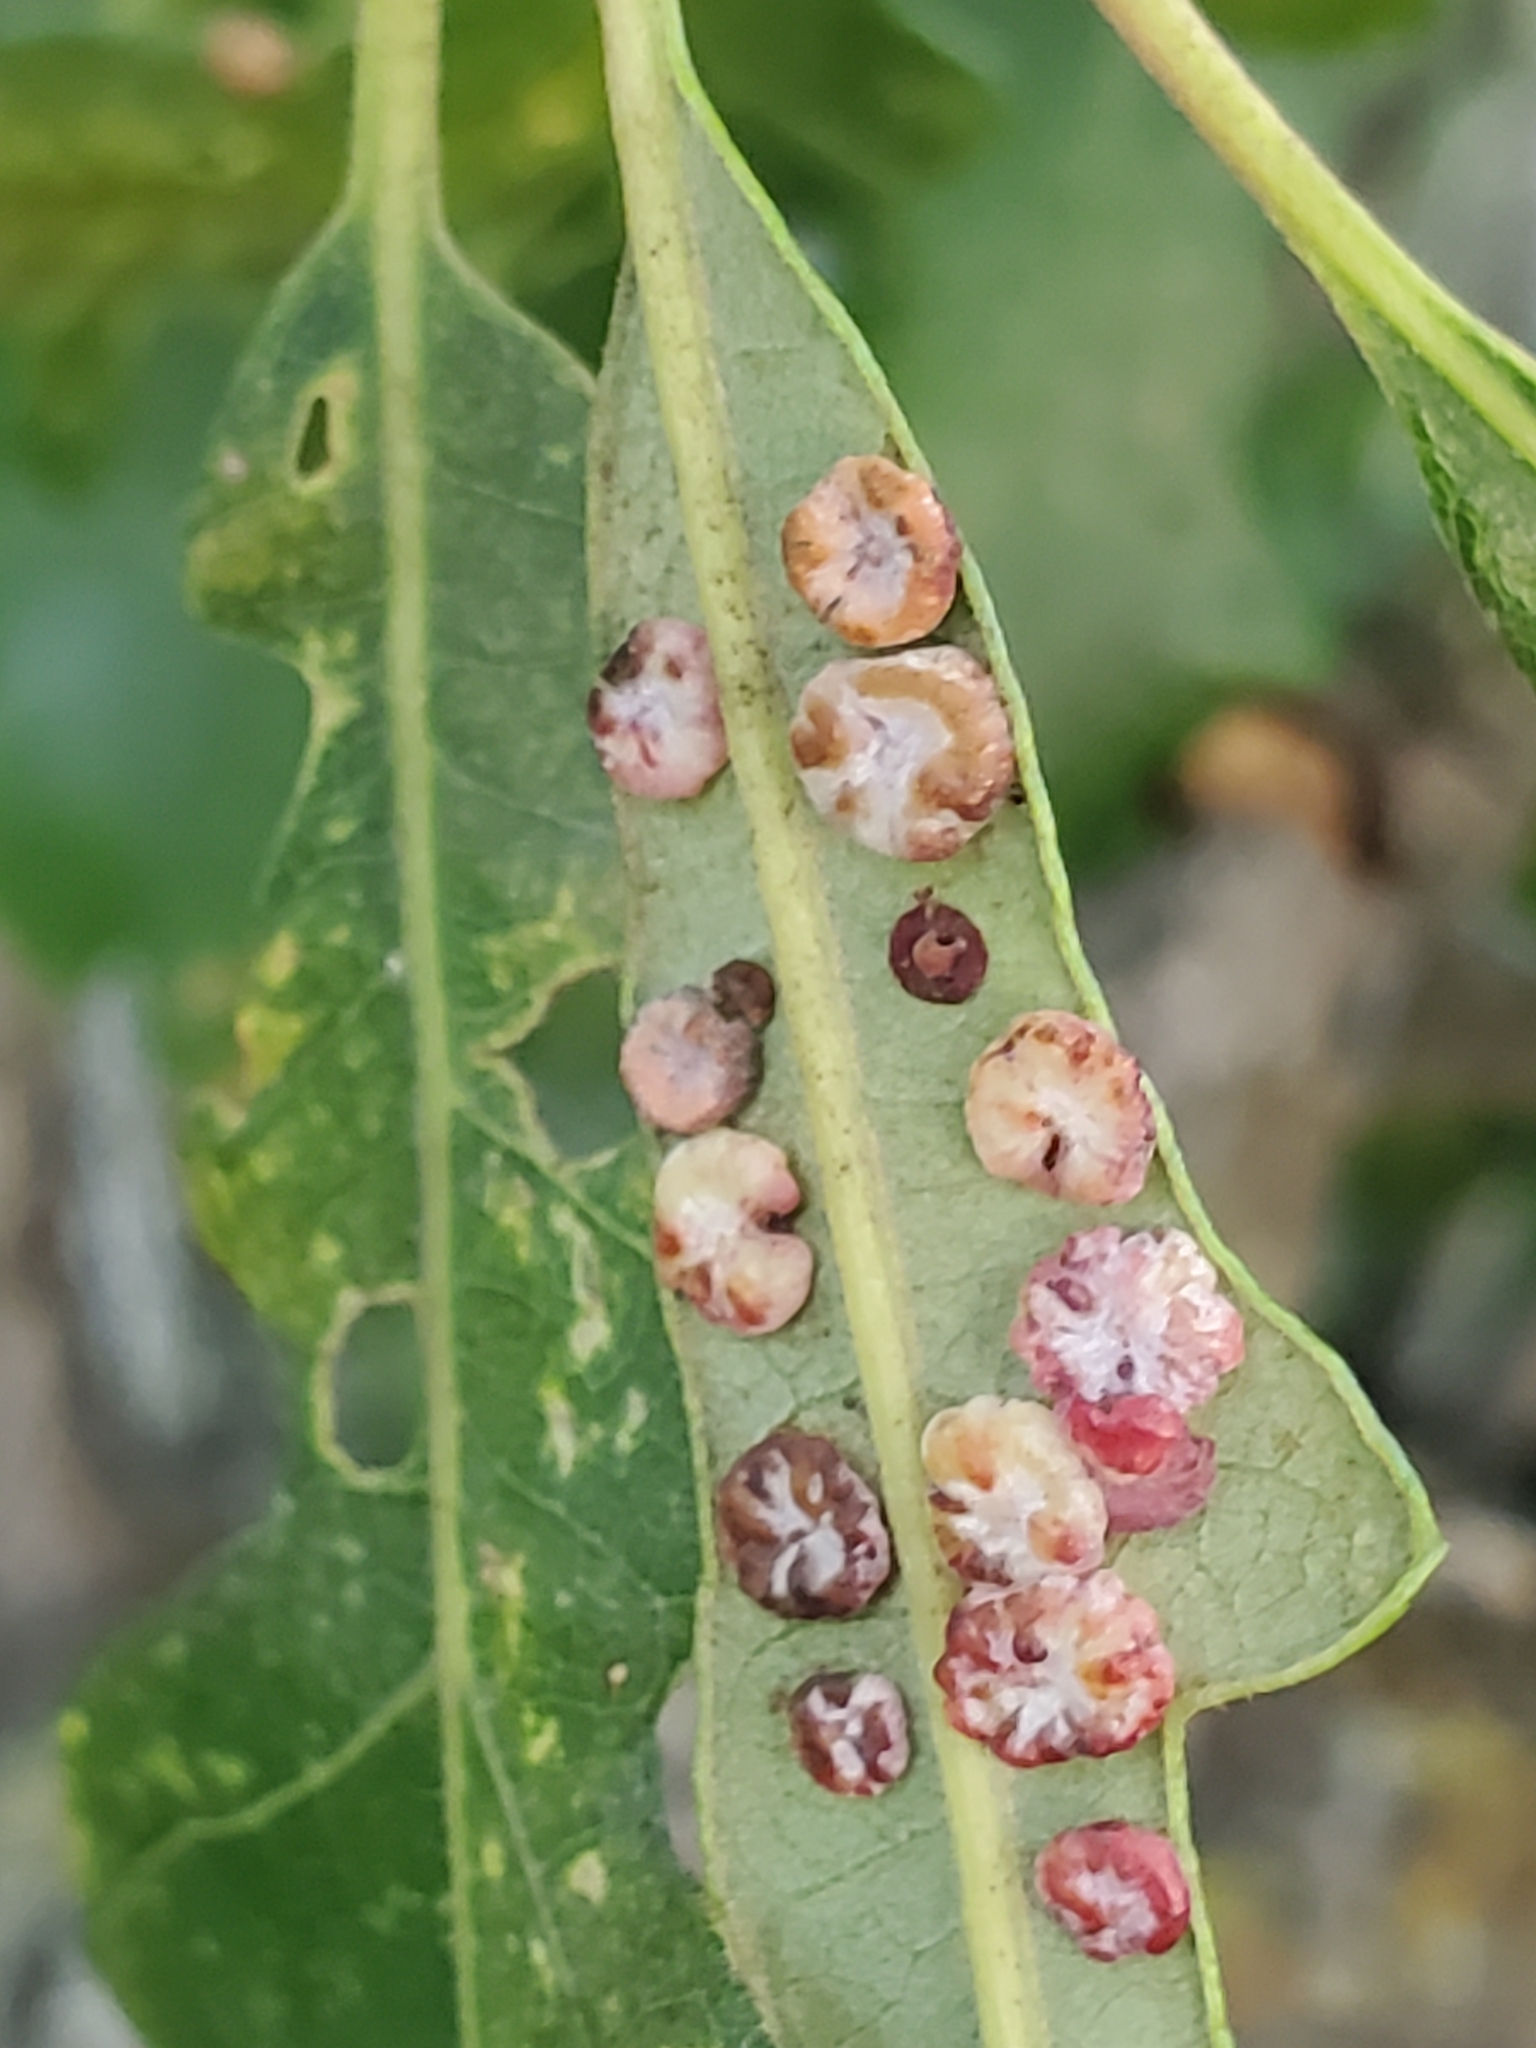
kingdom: Animalia
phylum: Arthropoda
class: Insecta
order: Hymenoptera
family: Cynipidae
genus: Phylloteras
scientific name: Phylloteras poculum
